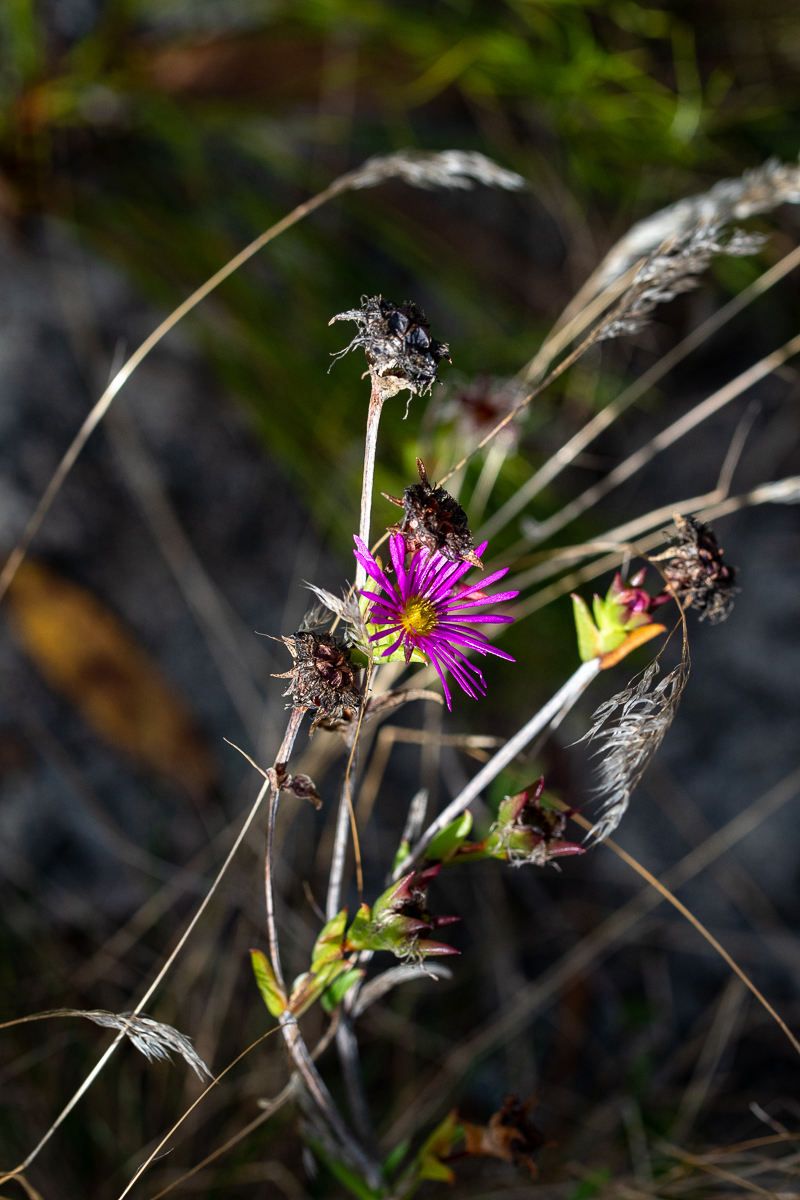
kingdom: Plantae
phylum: Tracheophyta
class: Magnoliopsida
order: Caryophyllales
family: Aizoaceae
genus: Erepsia
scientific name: Erepsia anceps
